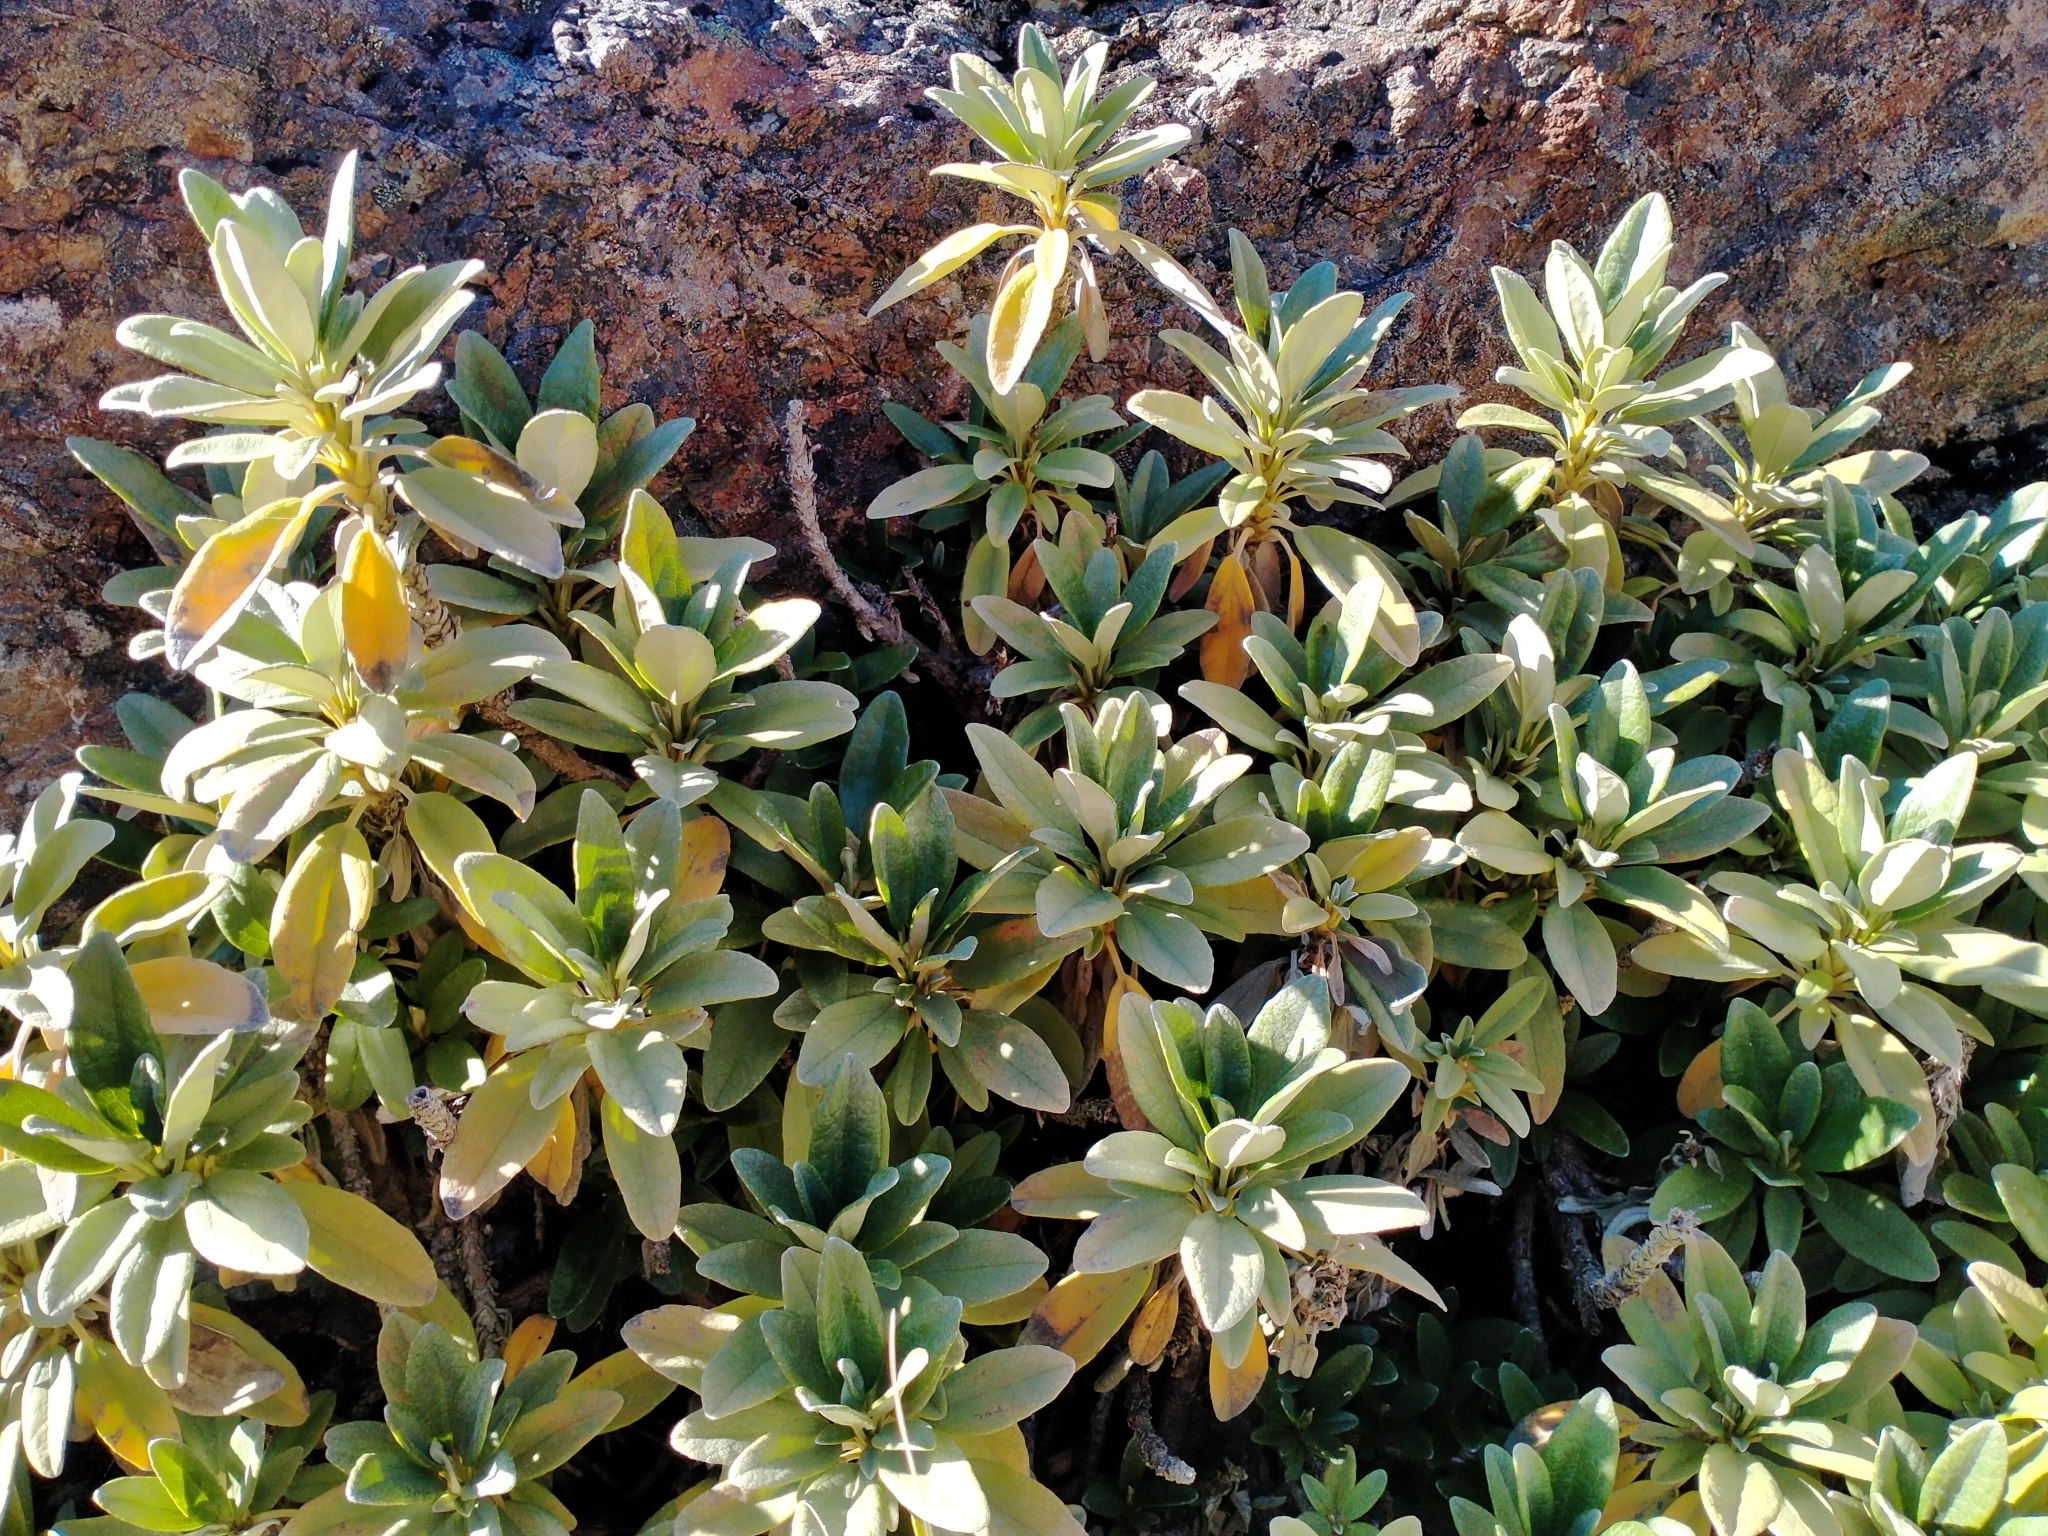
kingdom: Plantae
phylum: Tracheophyta
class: Magnoliopsida
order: Asterales
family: Asteraceae
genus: Brachyglottis
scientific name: Brachyglottis revoluta
